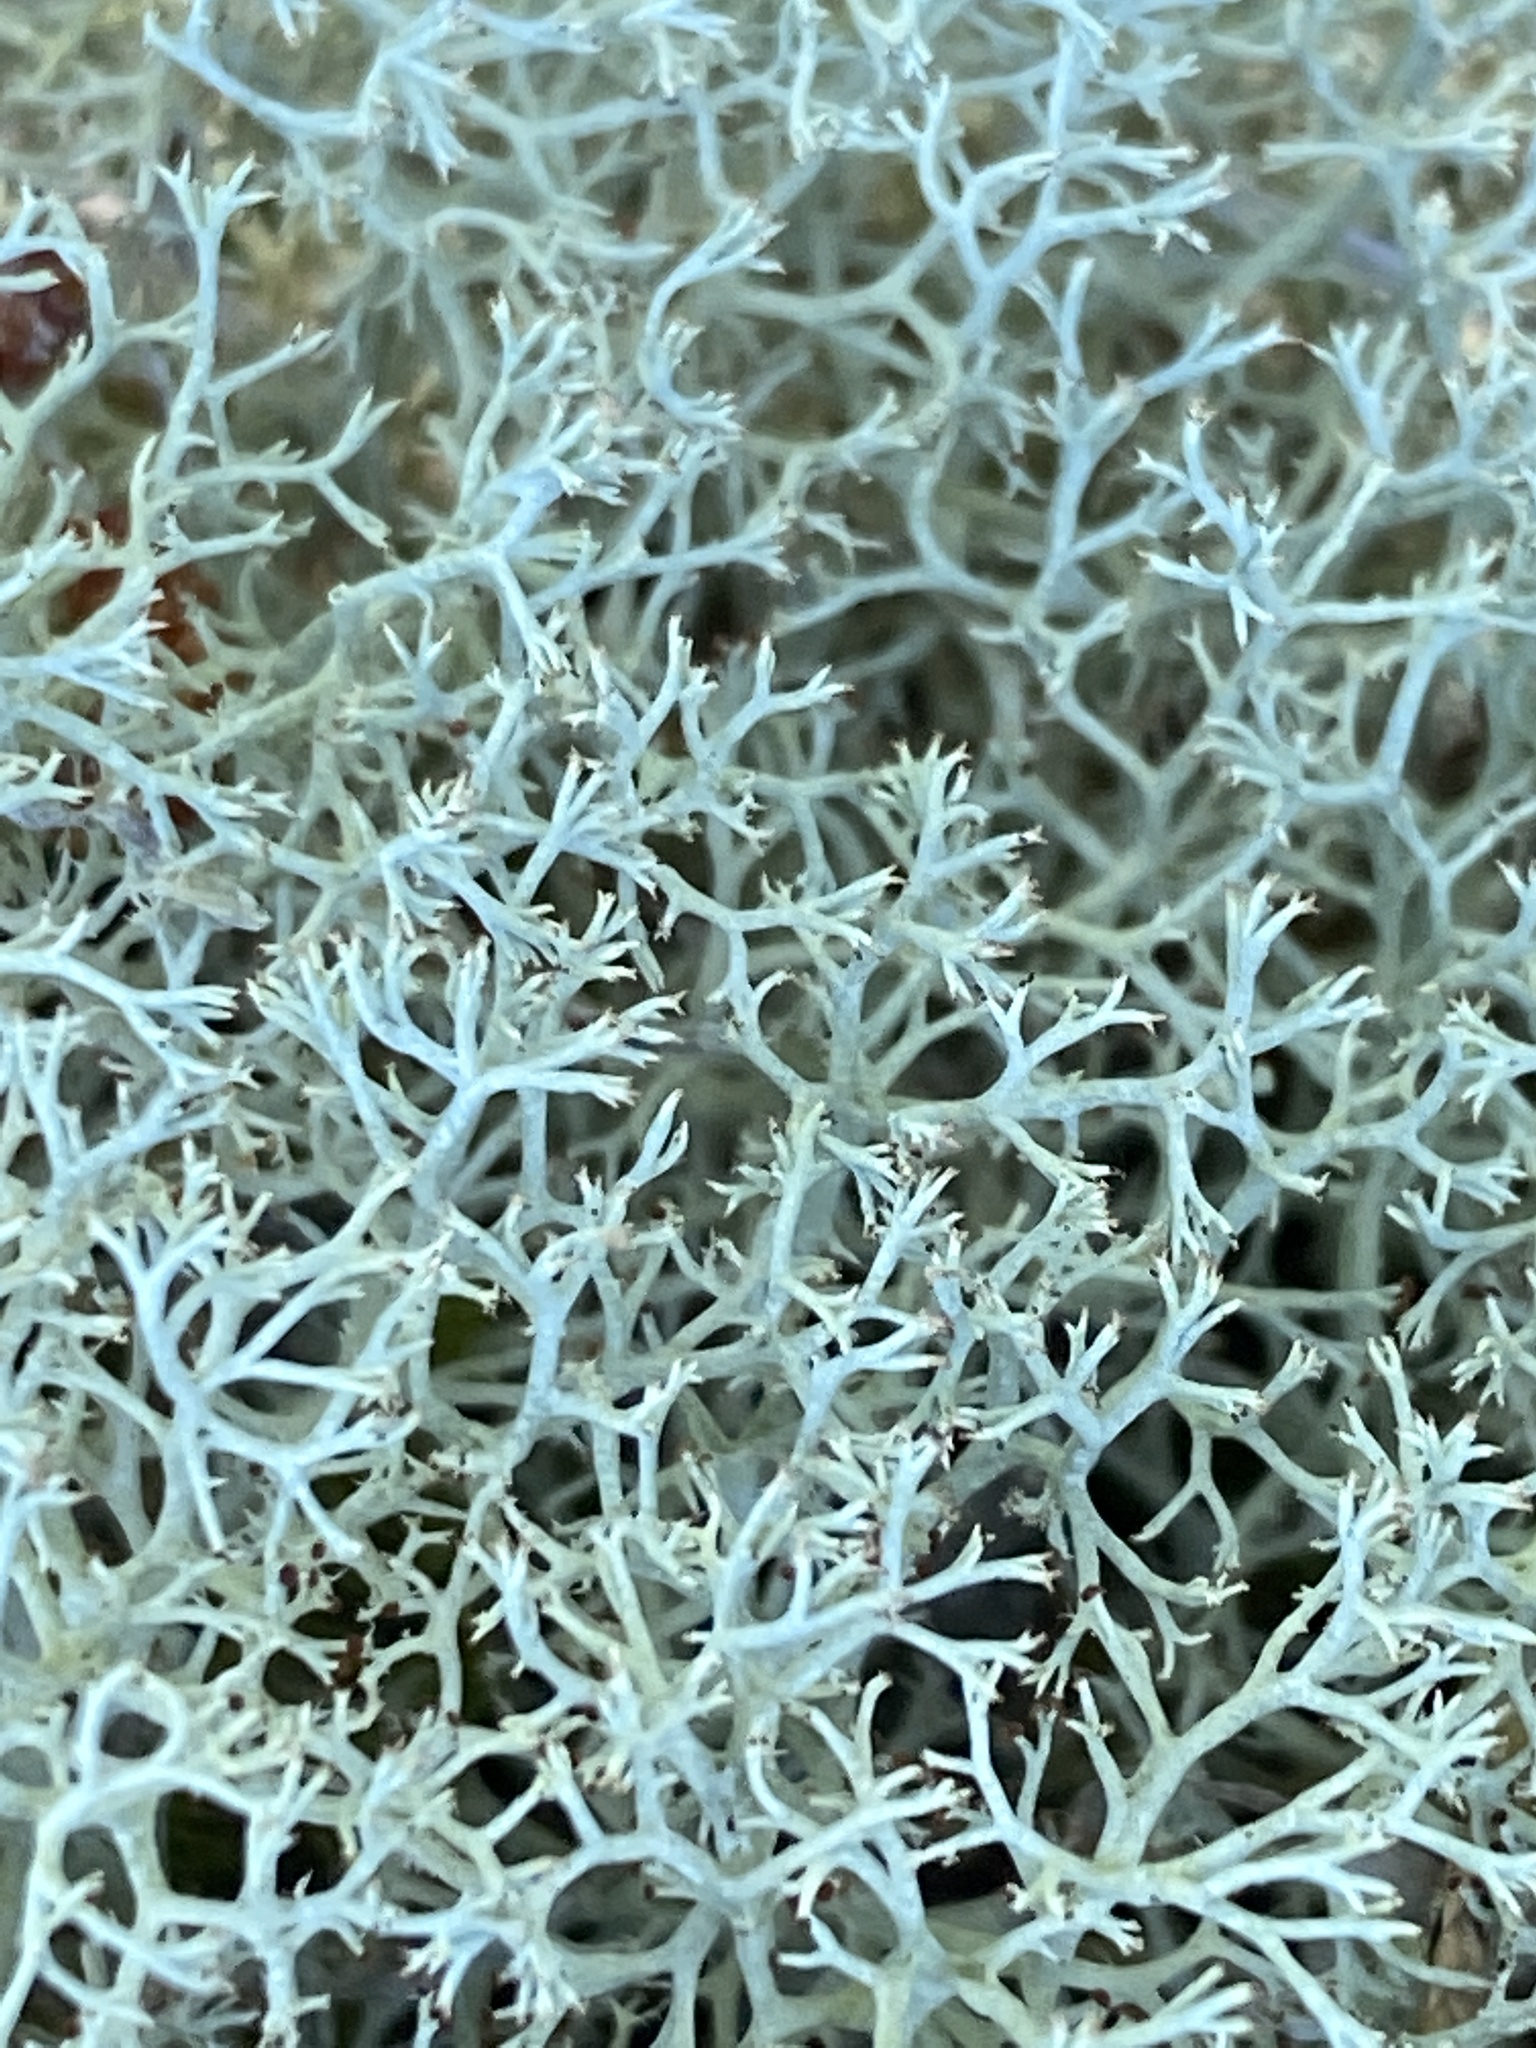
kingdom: Fungi
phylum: Ascomycota
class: Lecanoromycetes
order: Lecanorales
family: Cladoniaceae
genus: Cladonia
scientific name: Cladonia subtenuis
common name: Dixie reindeer lichen
